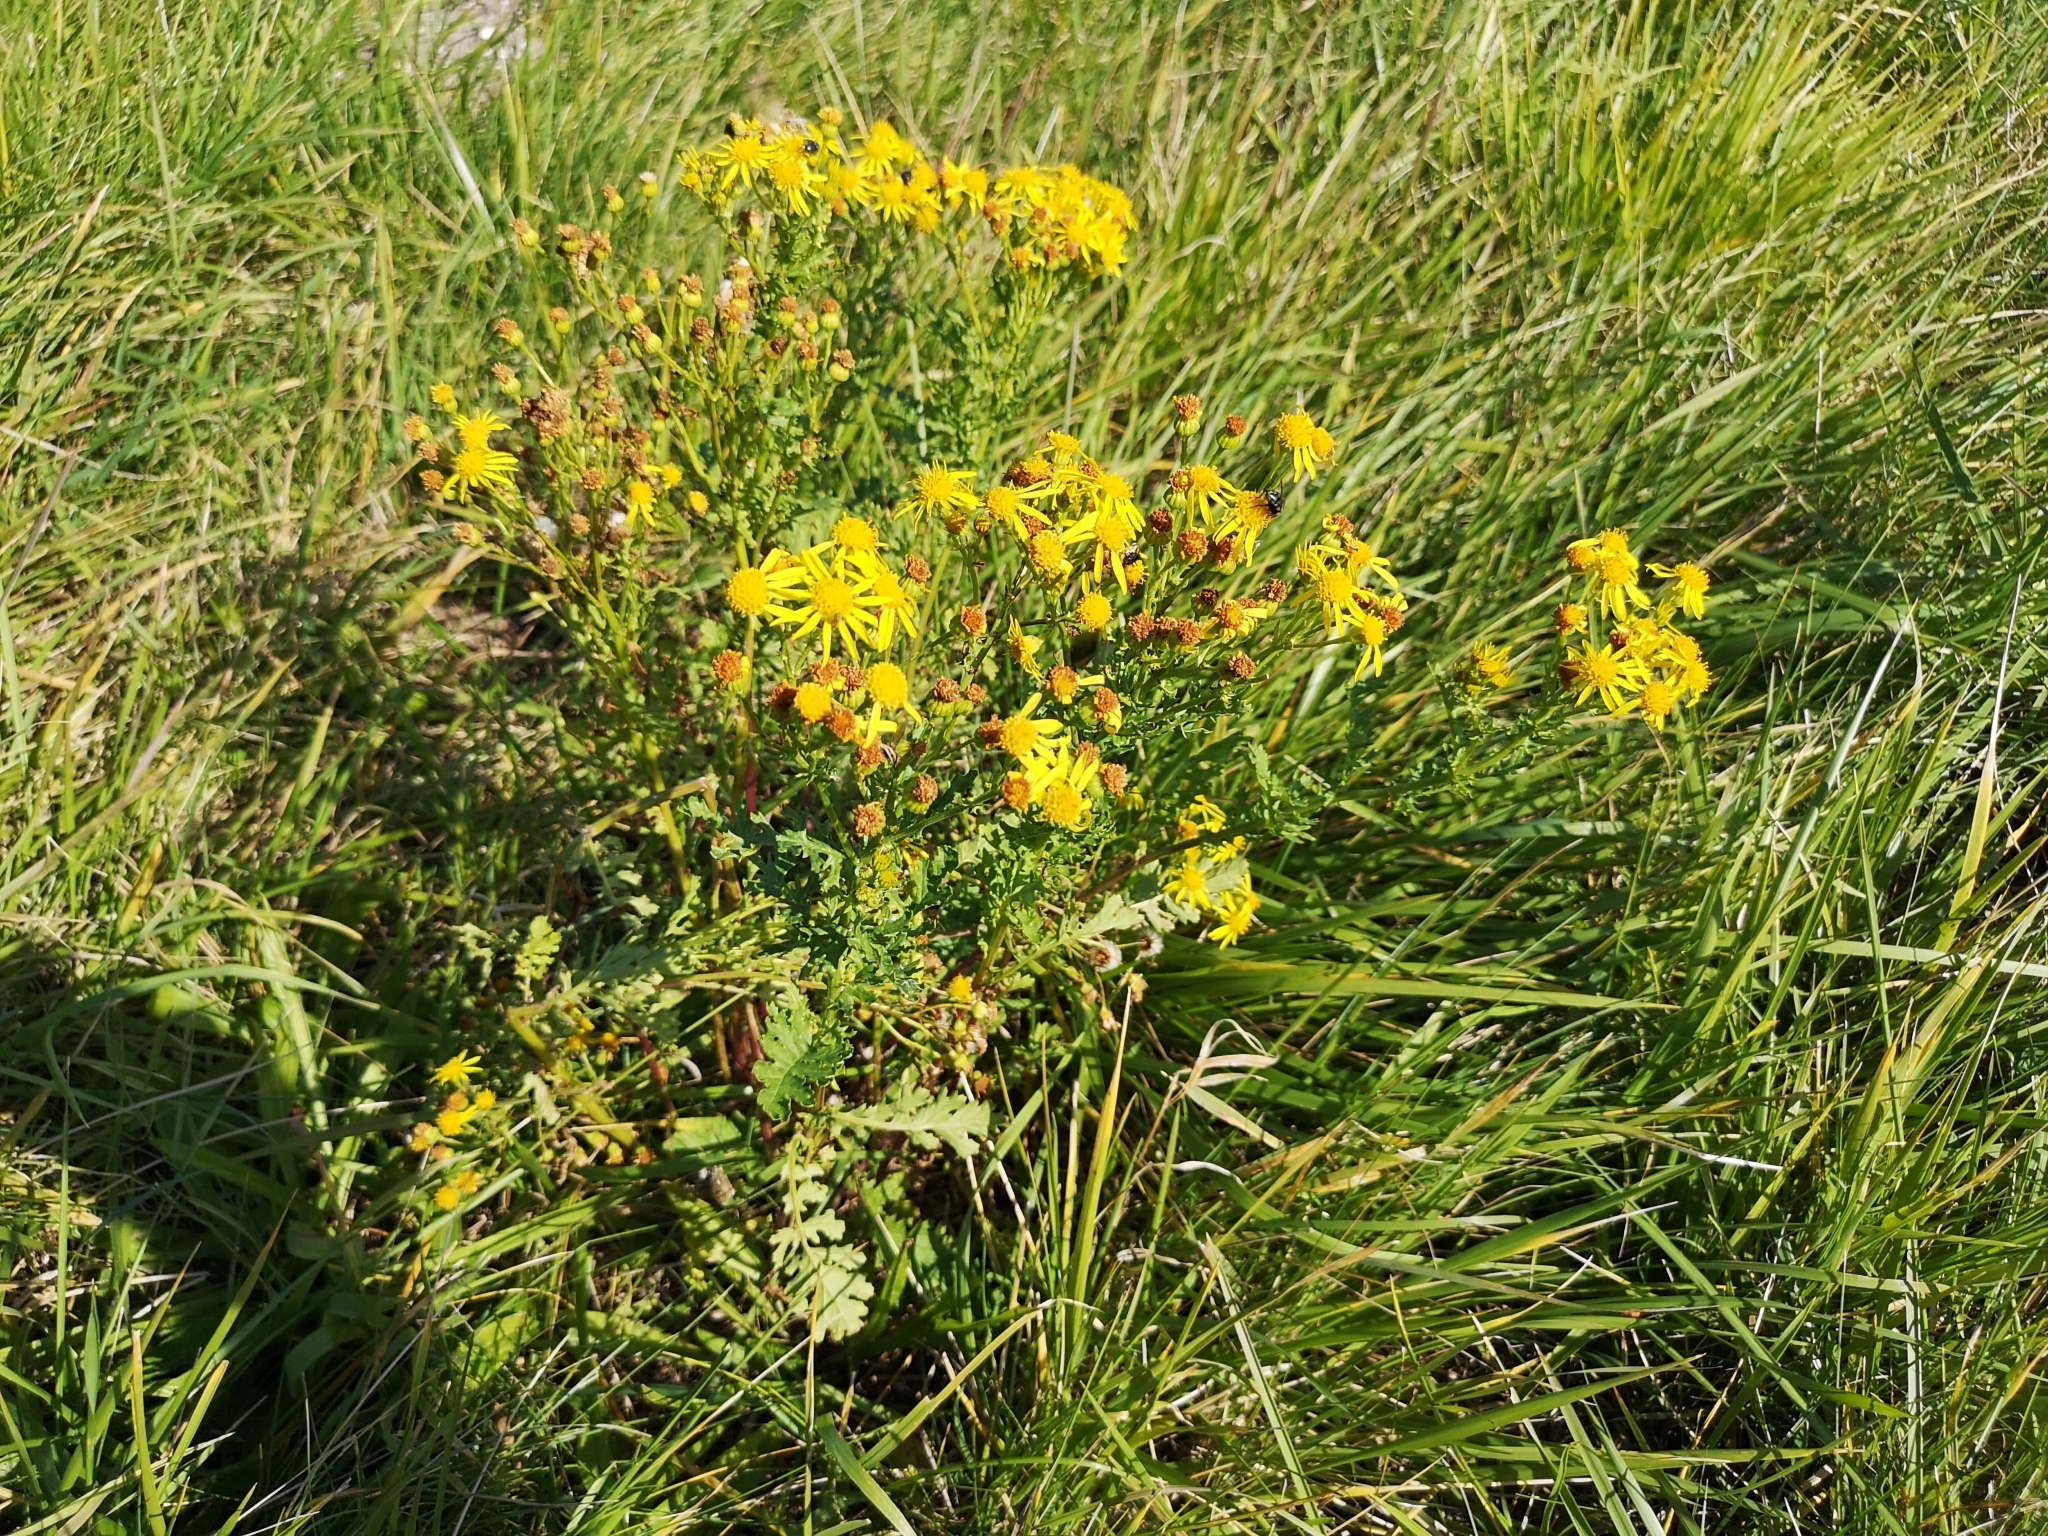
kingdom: Plantae
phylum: Tracheophyta
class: Magnoliopsida
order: Asterales
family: Asteraceae
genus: Jacobaea
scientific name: Jacobaea vulgaris
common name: Stinking willie
